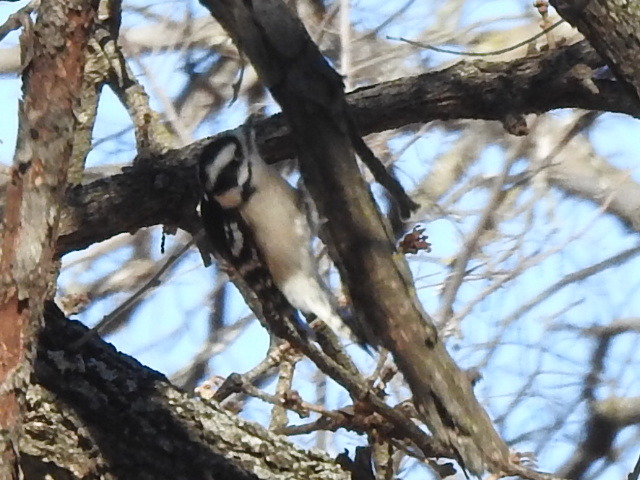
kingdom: Animalia
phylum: Chordata
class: Aves
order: Piciformes
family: Picidae
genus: Dryobates
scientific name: Dryobates pubescens
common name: Downy woodpecker
